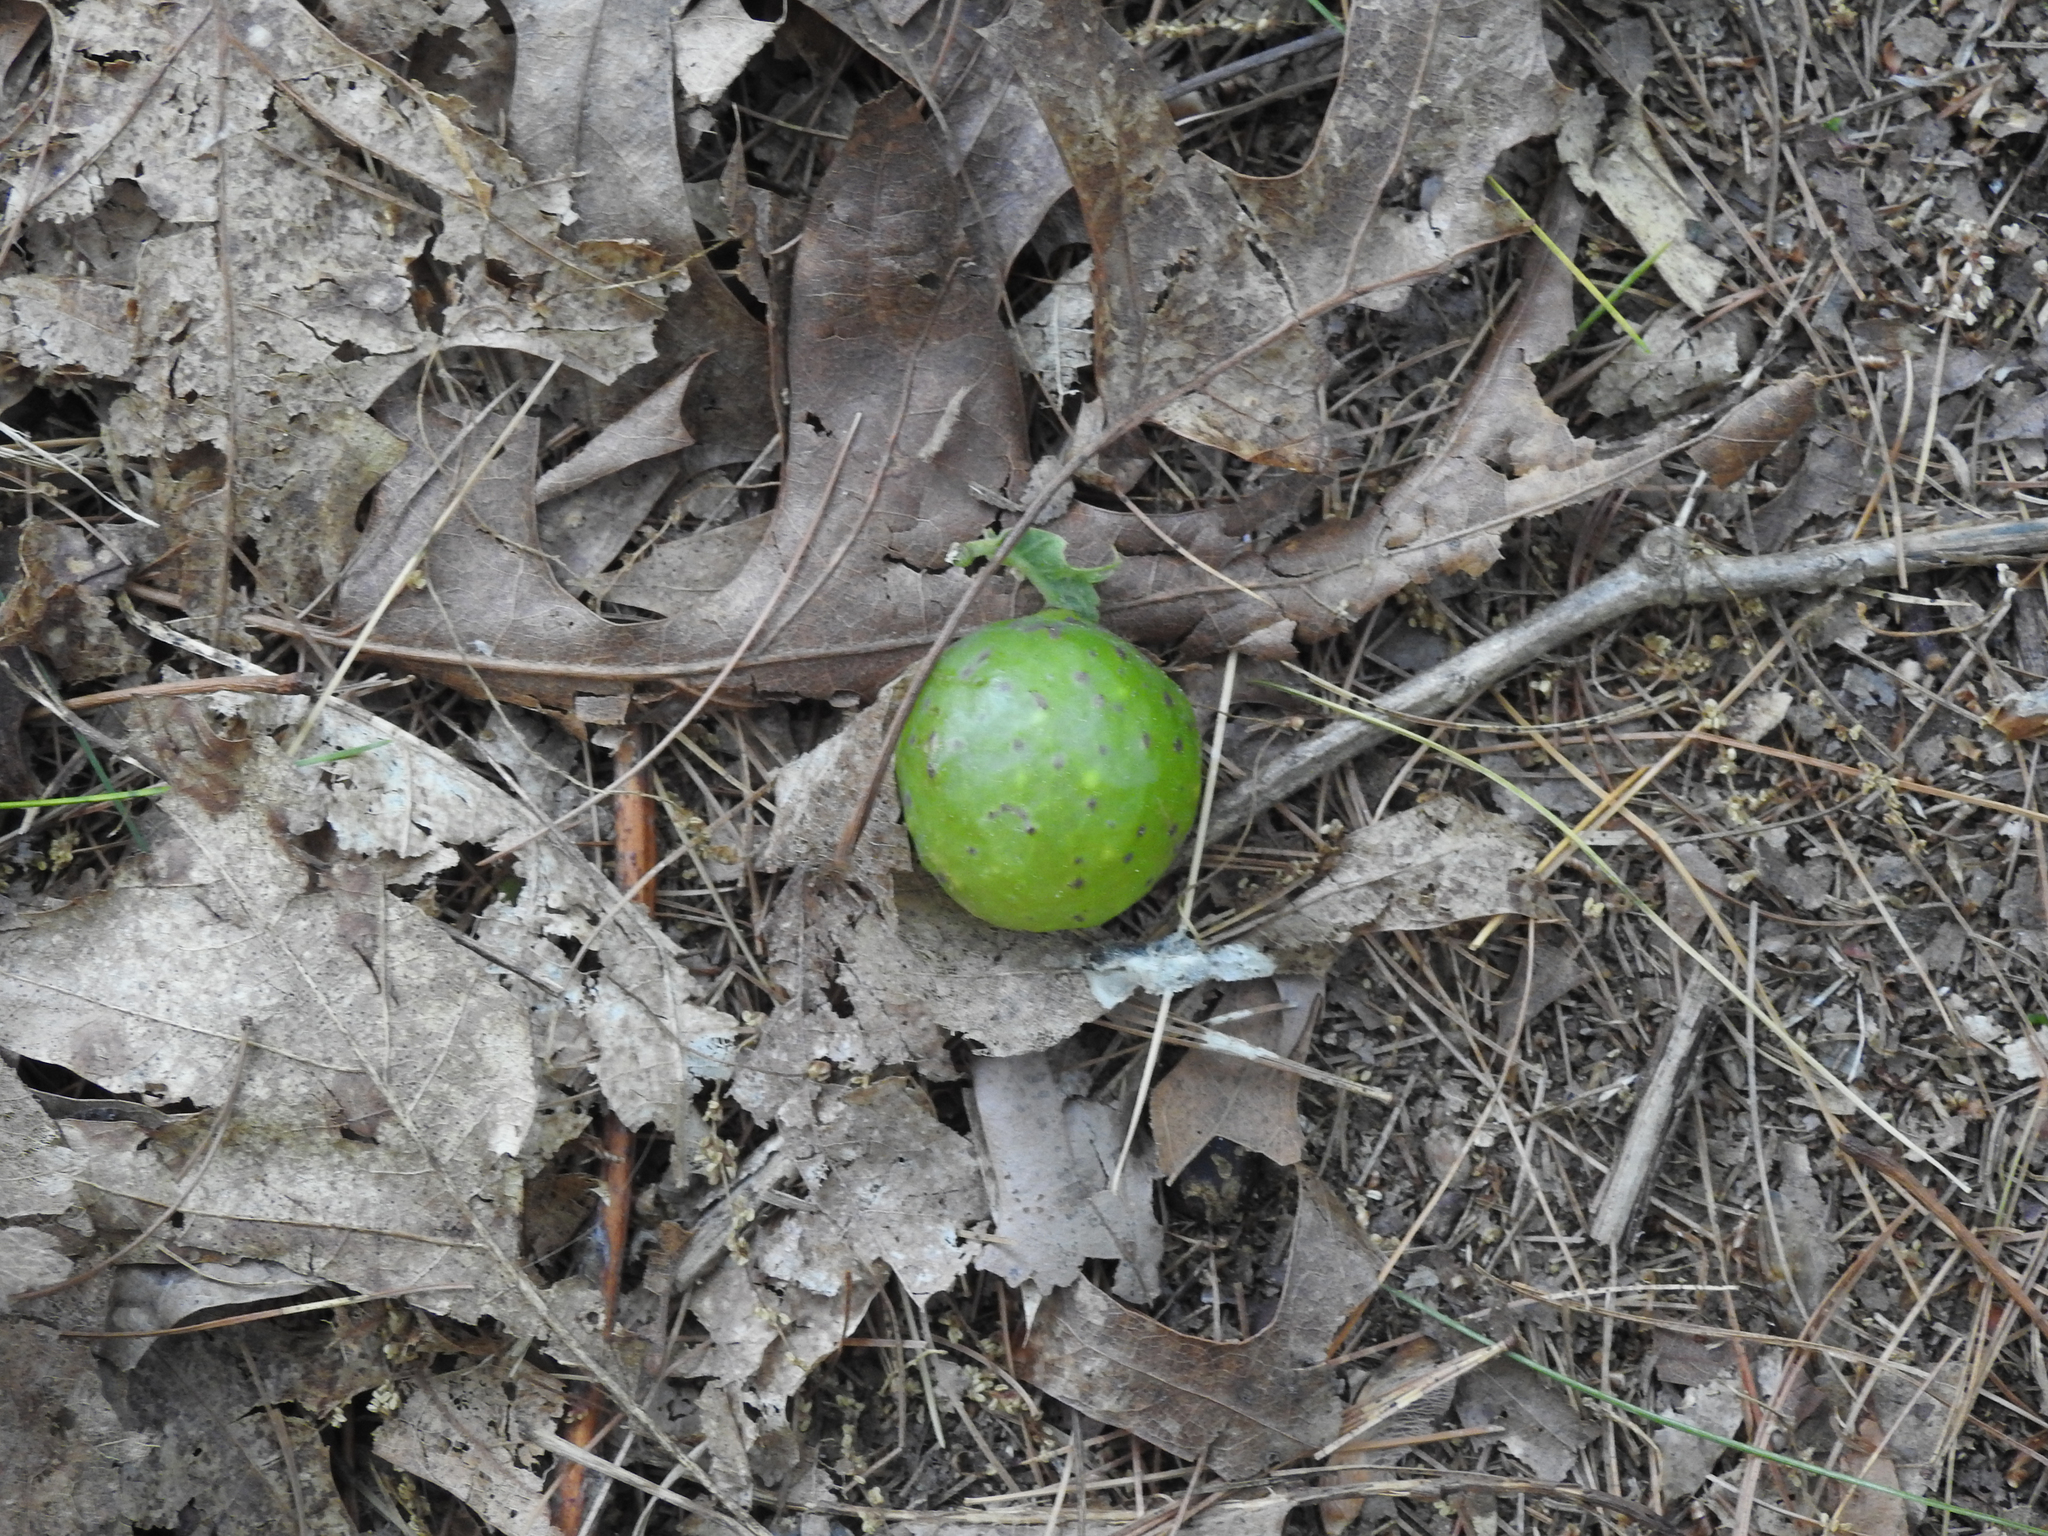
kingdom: Animalia
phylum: Arthropoda
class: Insecta
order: Hymenoptera
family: Cynipidae
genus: Amphibolips
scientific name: Amphibolips
